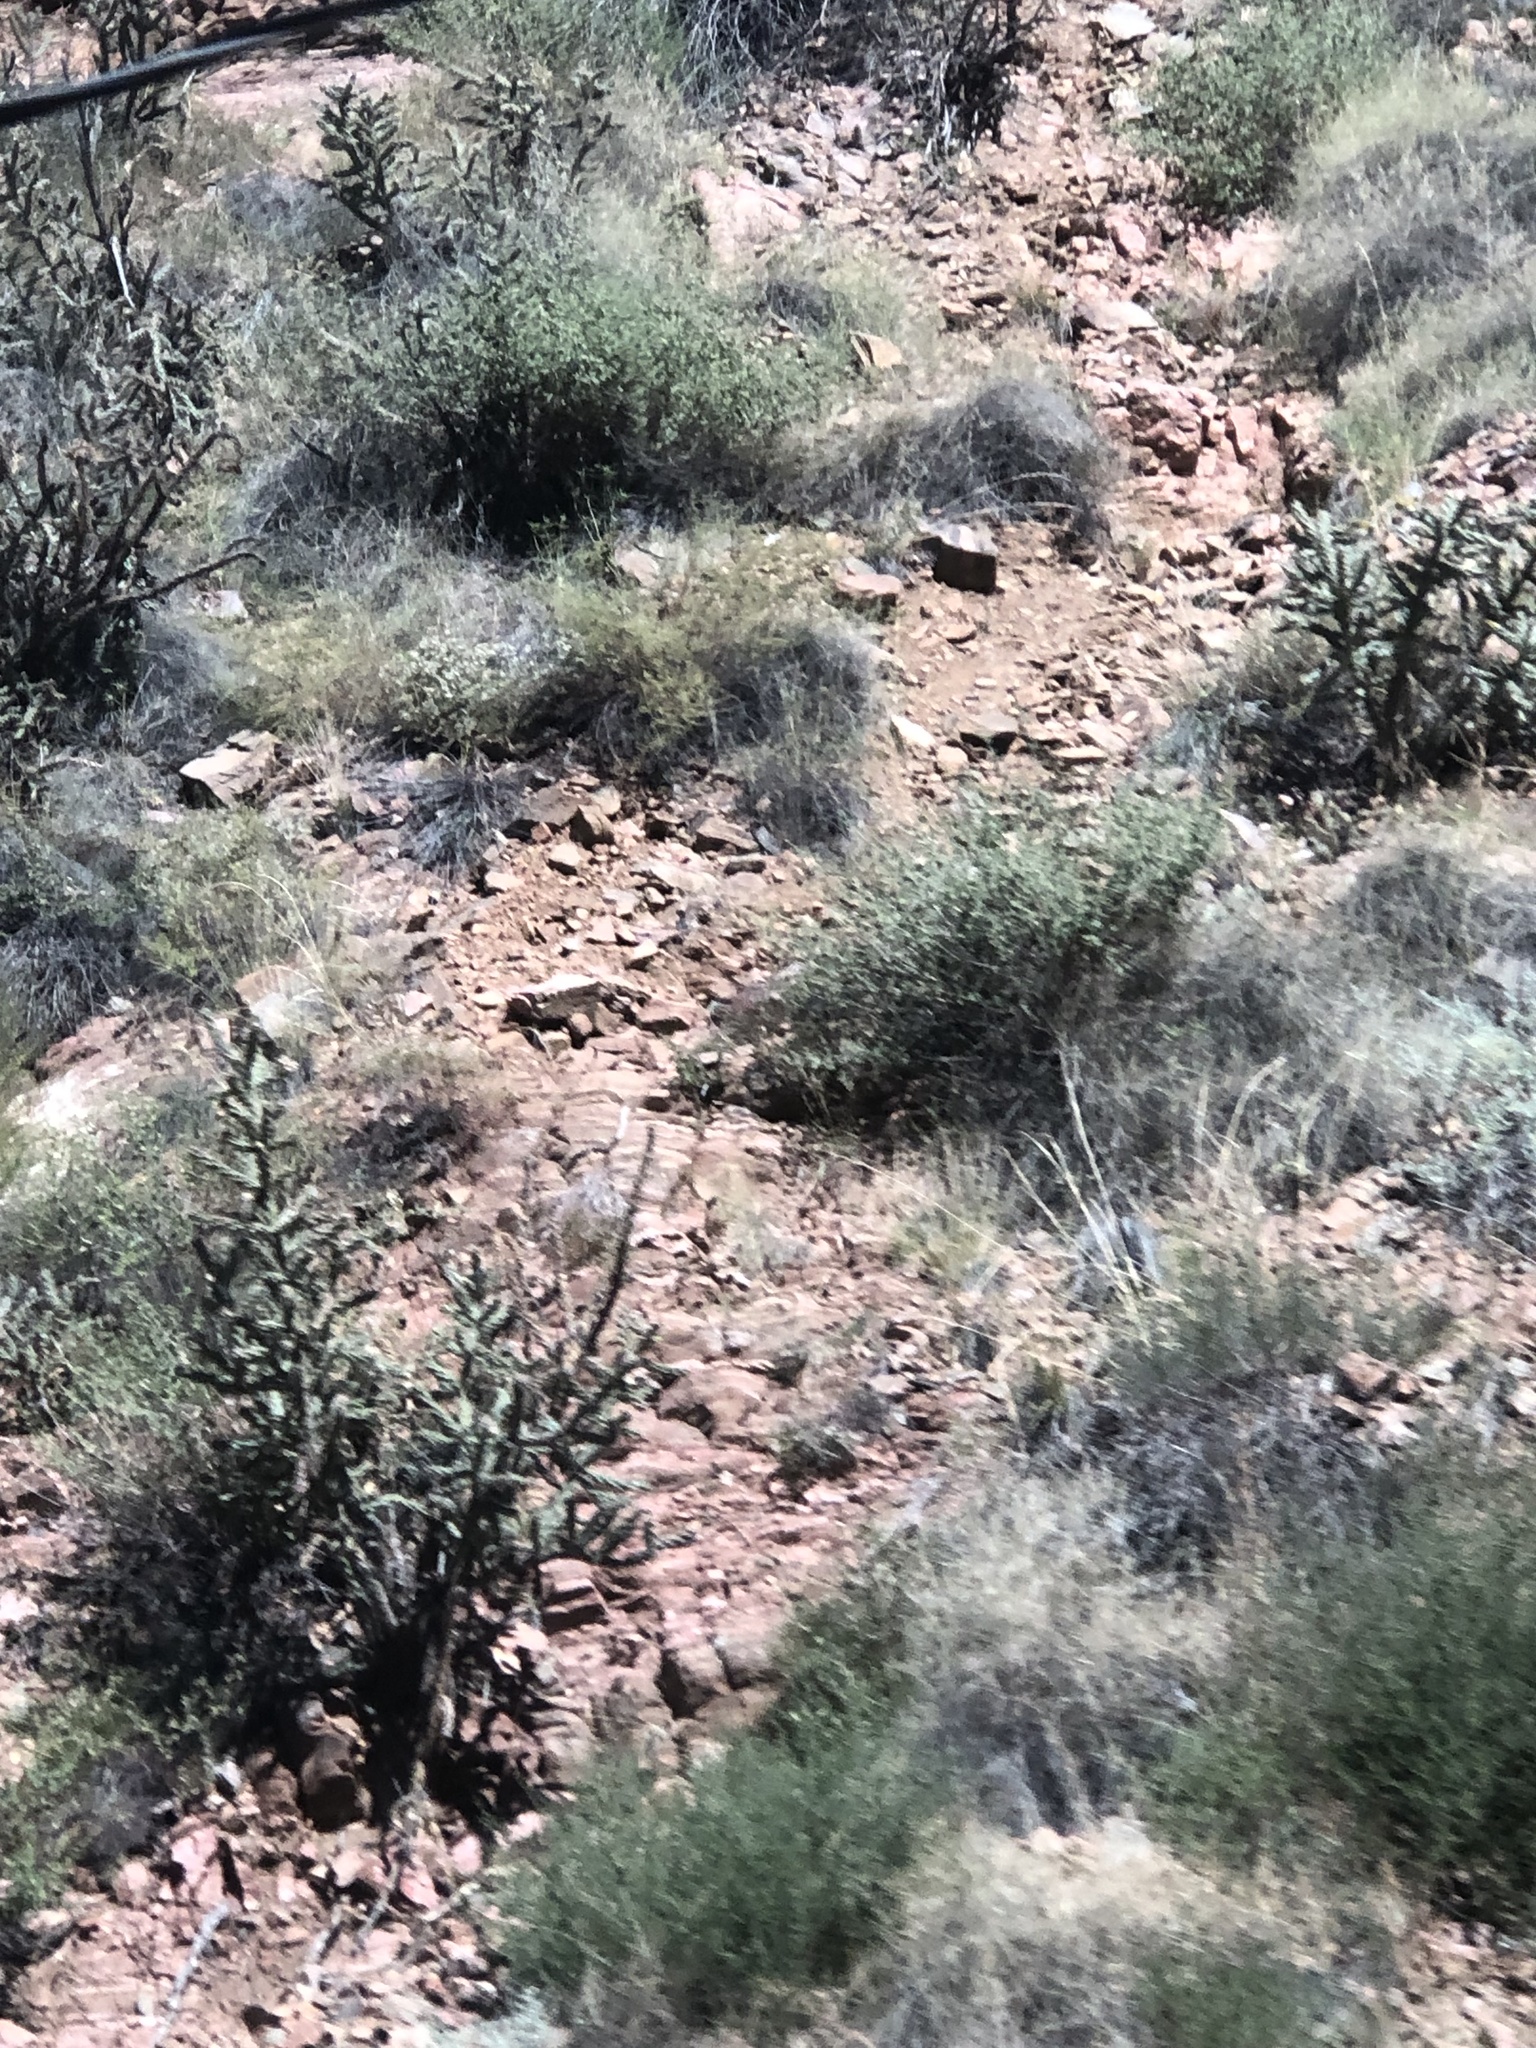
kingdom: Plantae
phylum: Tracheophyta
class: Magnoliopsida
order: Caryophyllales
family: Cactaceae
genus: Cylindropuntia
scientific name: Cylindropuntia imbricata
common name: Candelabrum cactus
